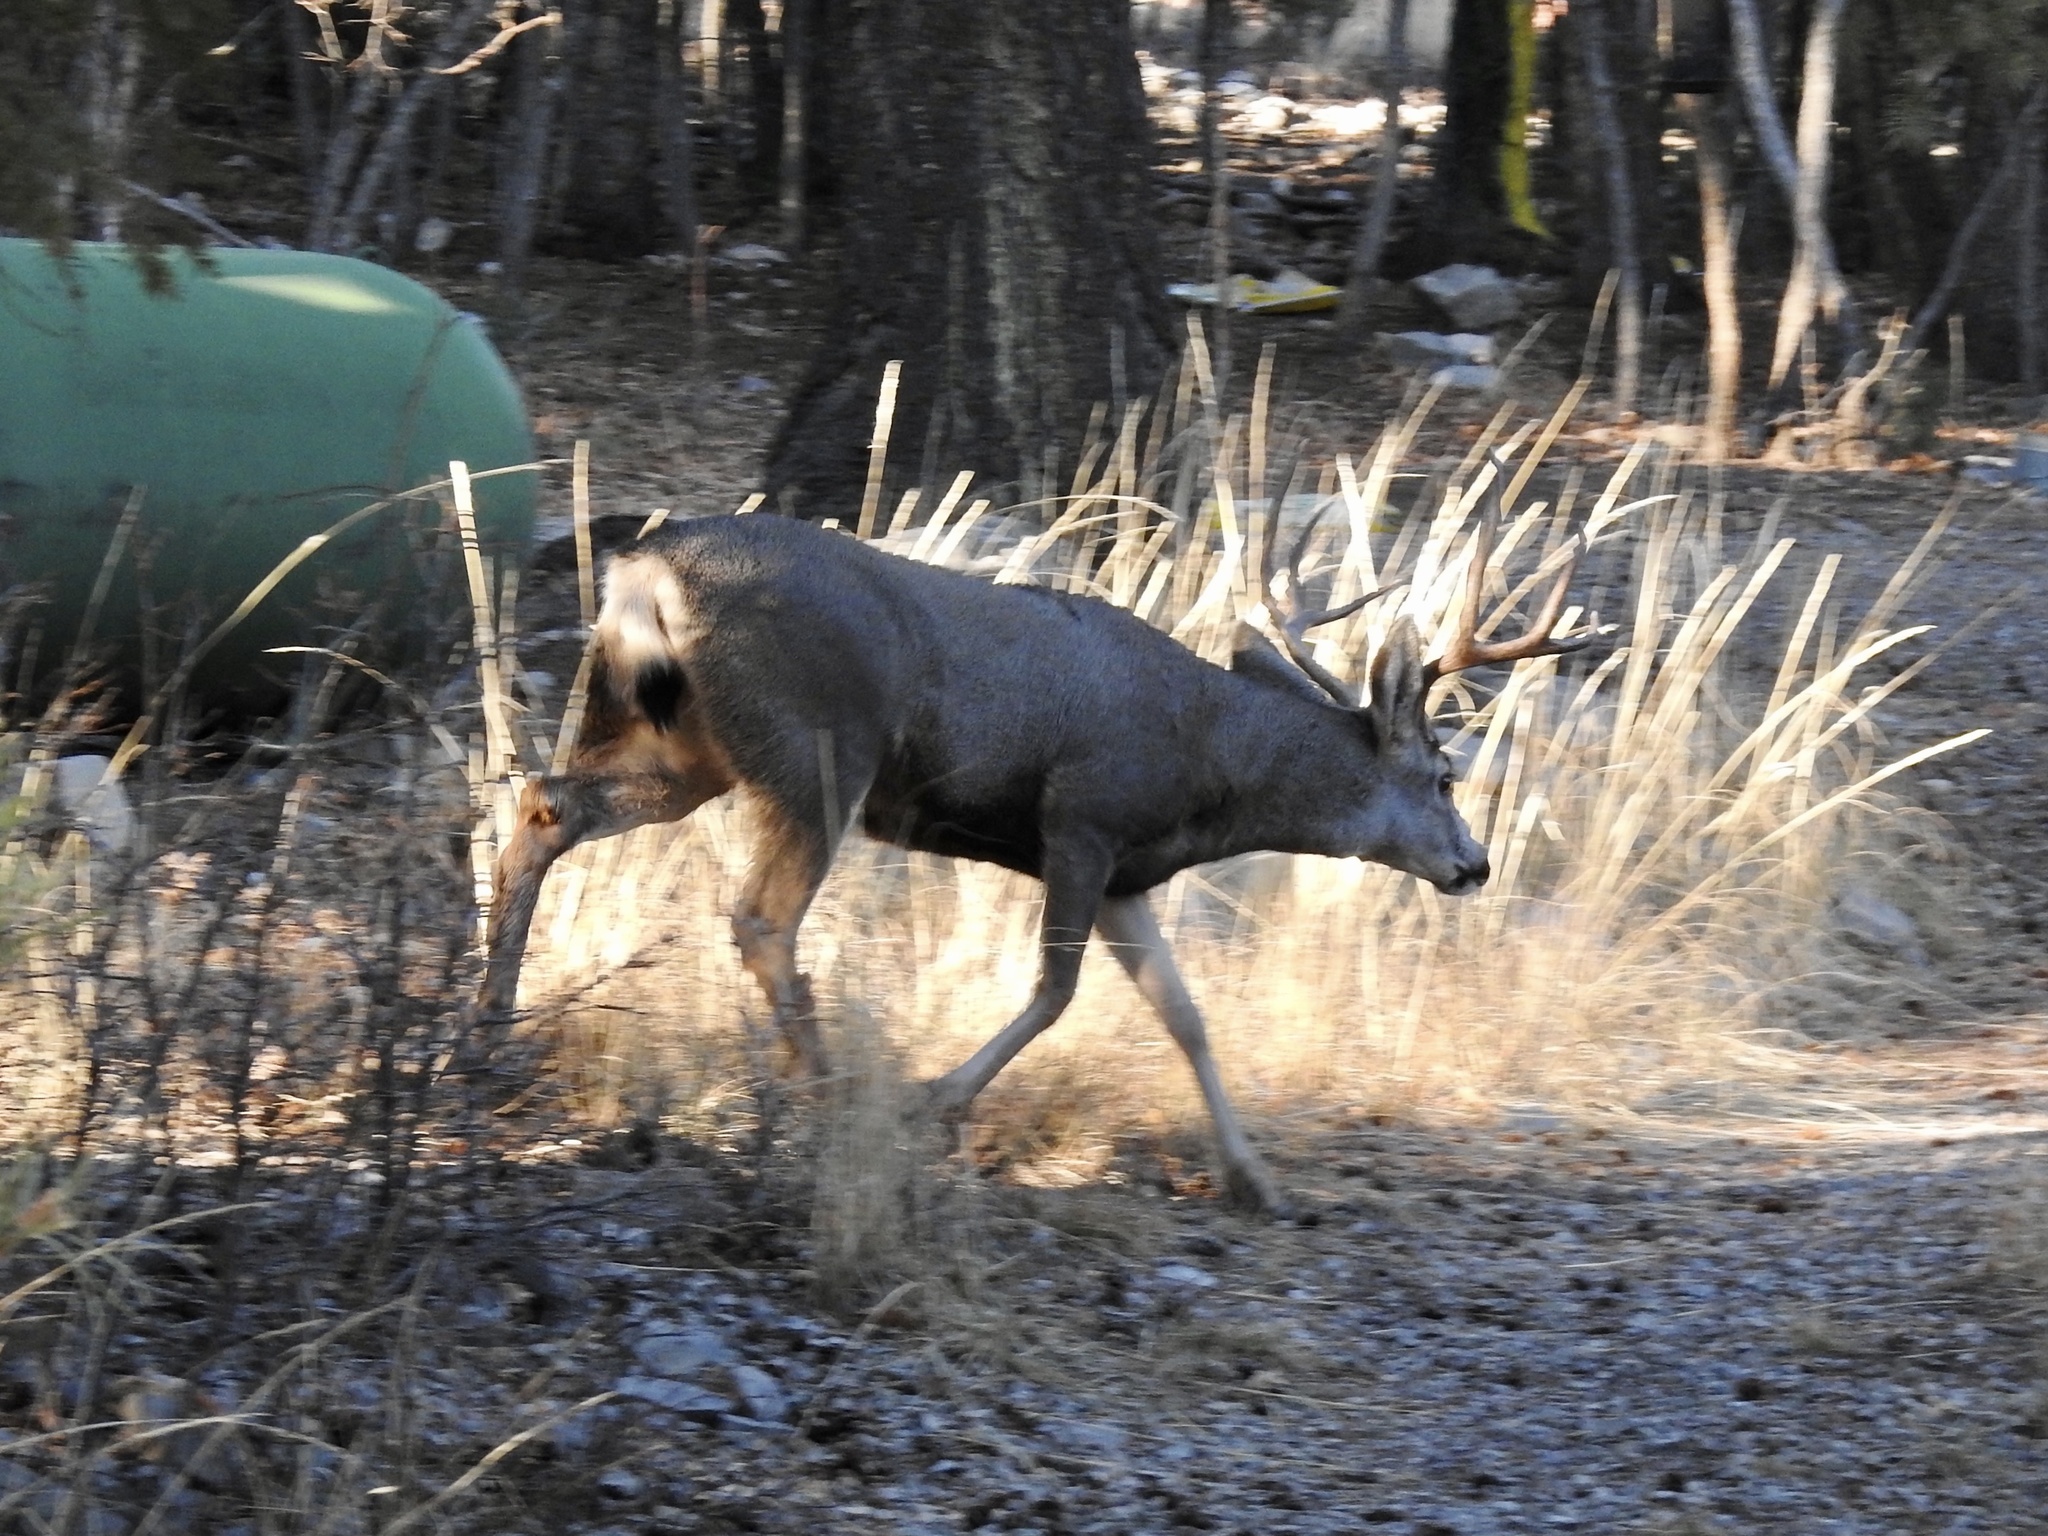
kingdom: Animalia
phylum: Chordata
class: Mammalia
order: Artiodactyla
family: Cervidae
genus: Odocoileus
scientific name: Odocoileus hemionus
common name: Mule deer
